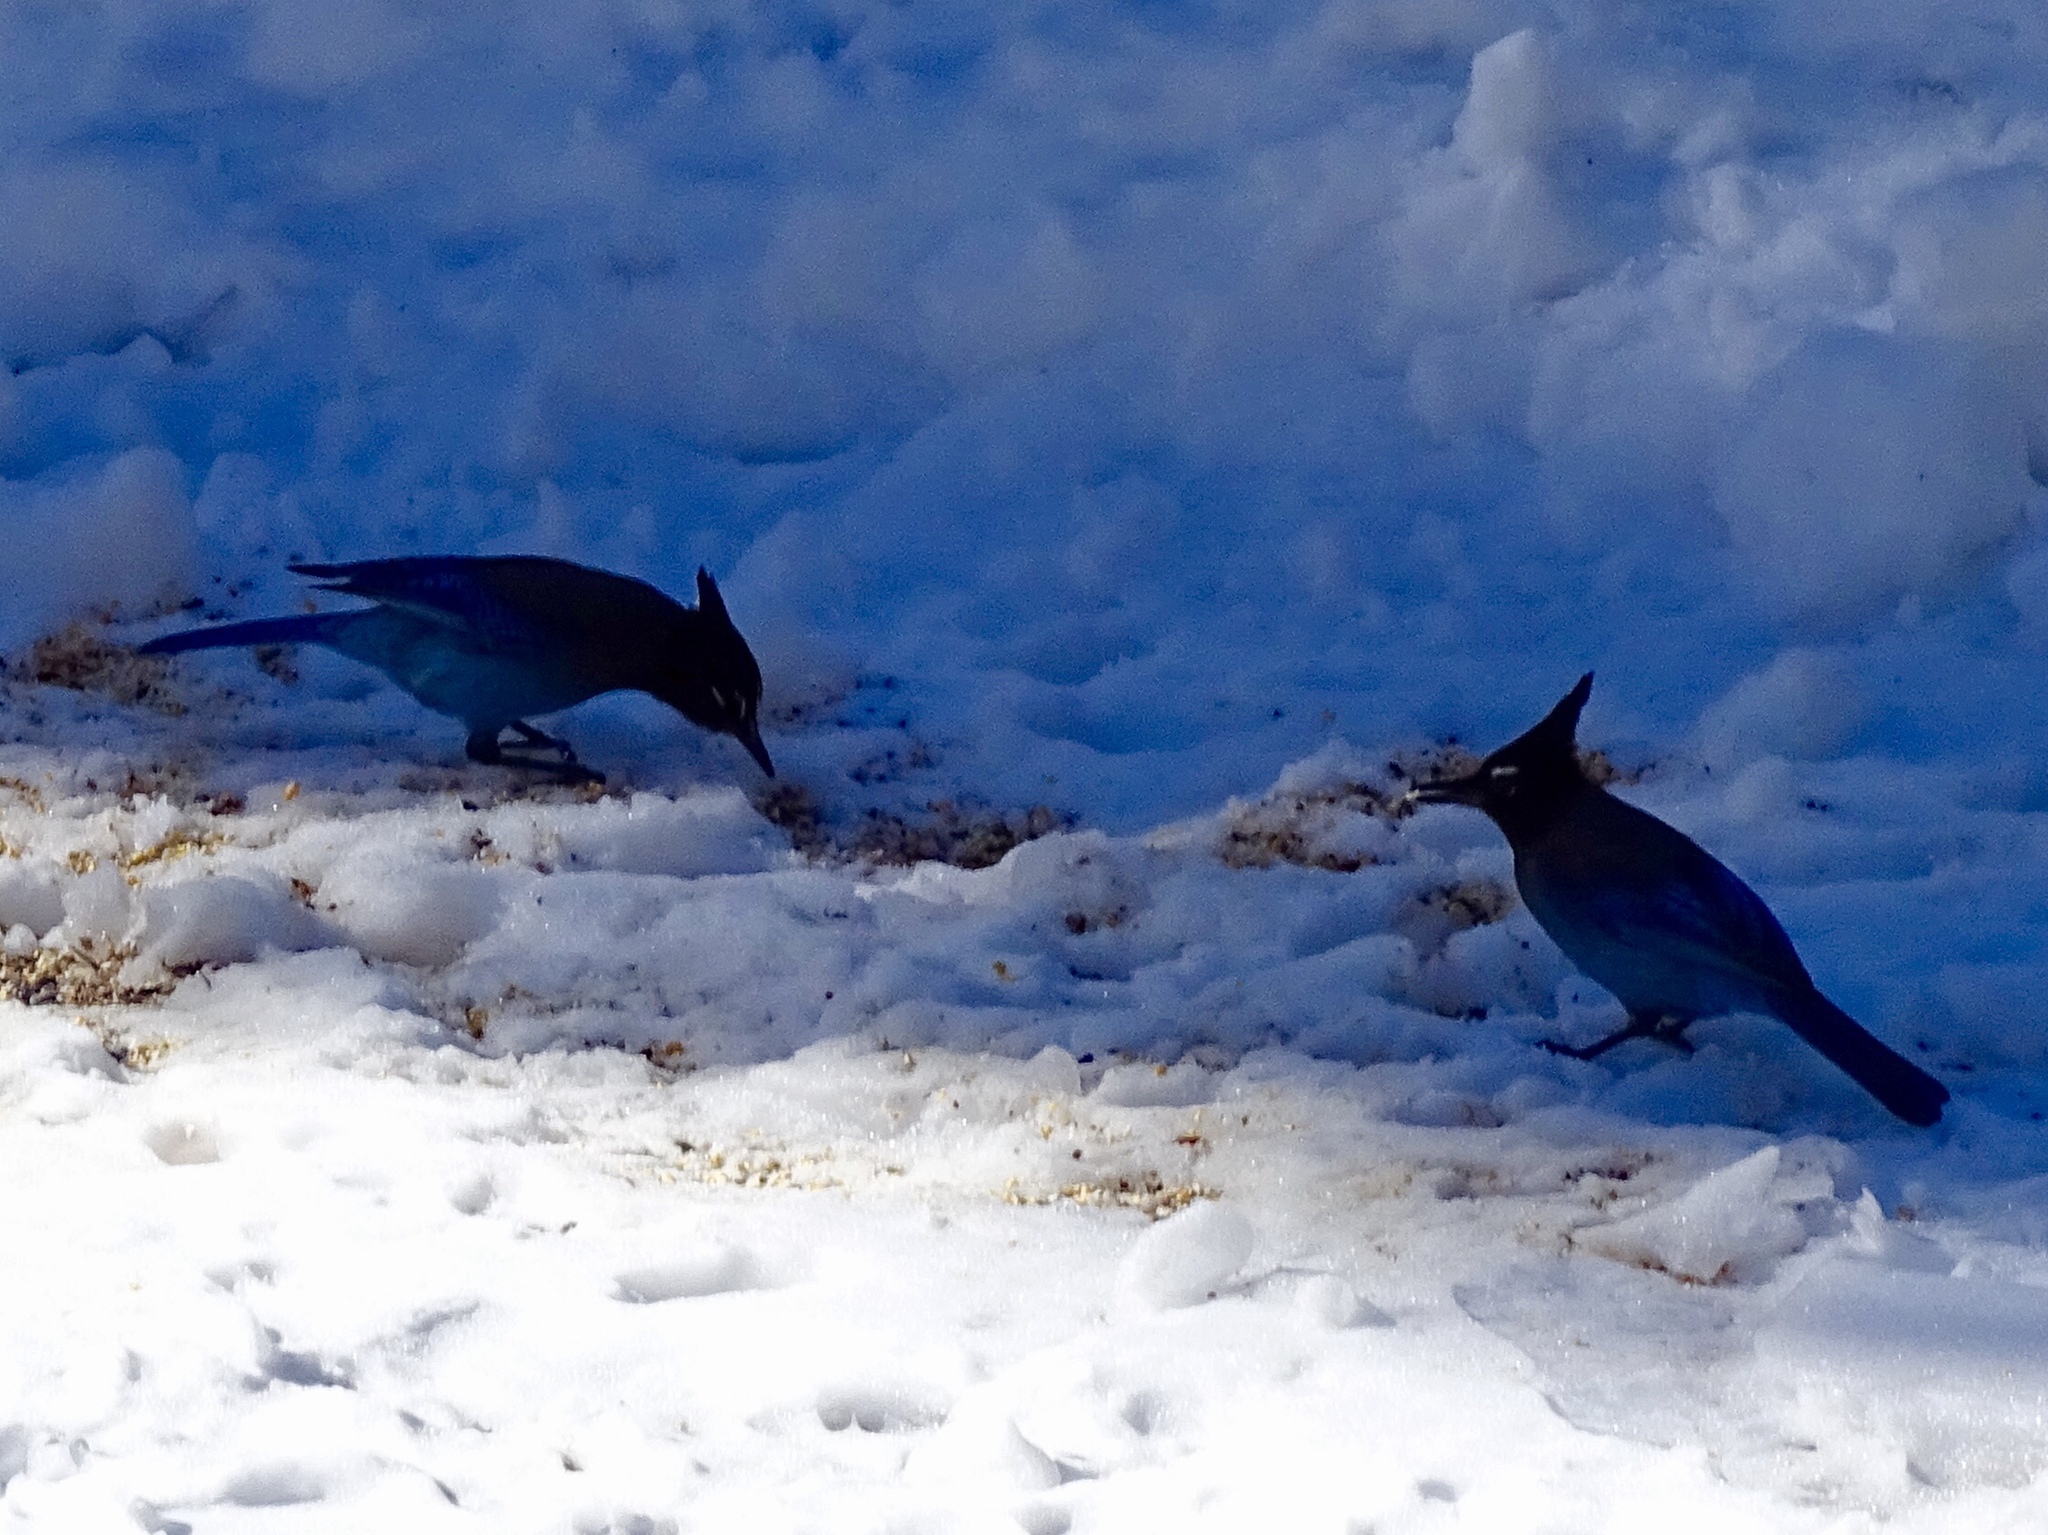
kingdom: Animalia
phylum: Chordata
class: Aves
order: Passeriformes
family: Corvidae
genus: Cyanocitta
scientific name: Cyanocitta stelleri
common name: Steller's jay
